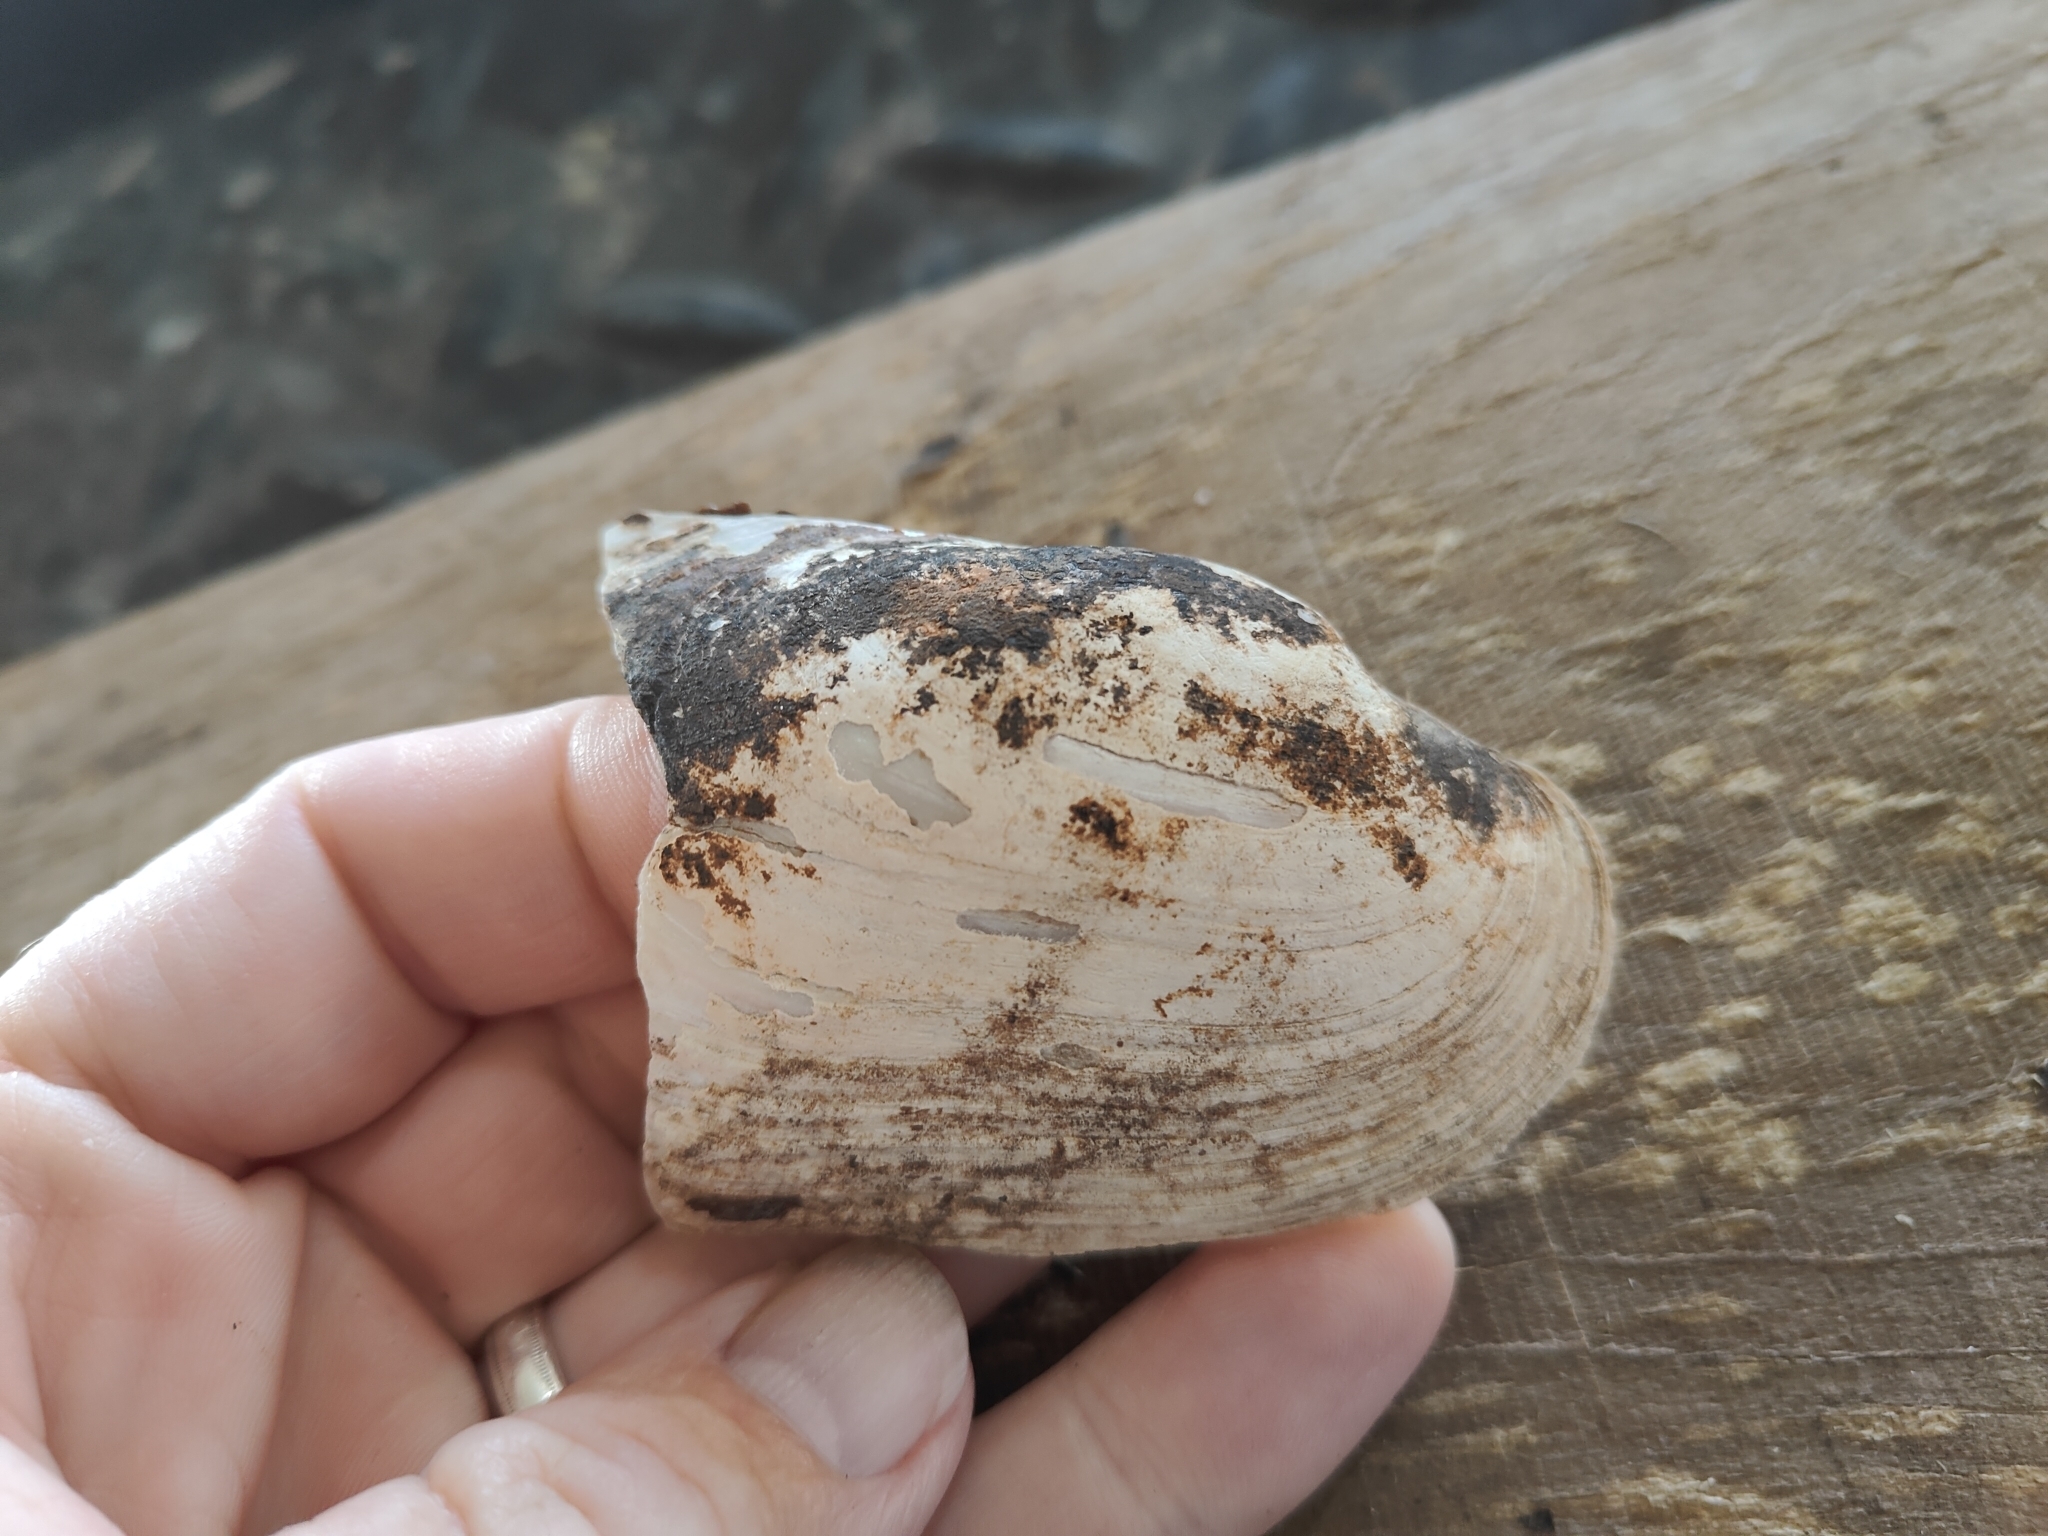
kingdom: Animalia
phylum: Mollusca
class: Bivalvia
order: Unionida
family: Unionidae
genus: Lampsilis
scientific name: Lampsilis siliquoidea
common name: Fatmucket
